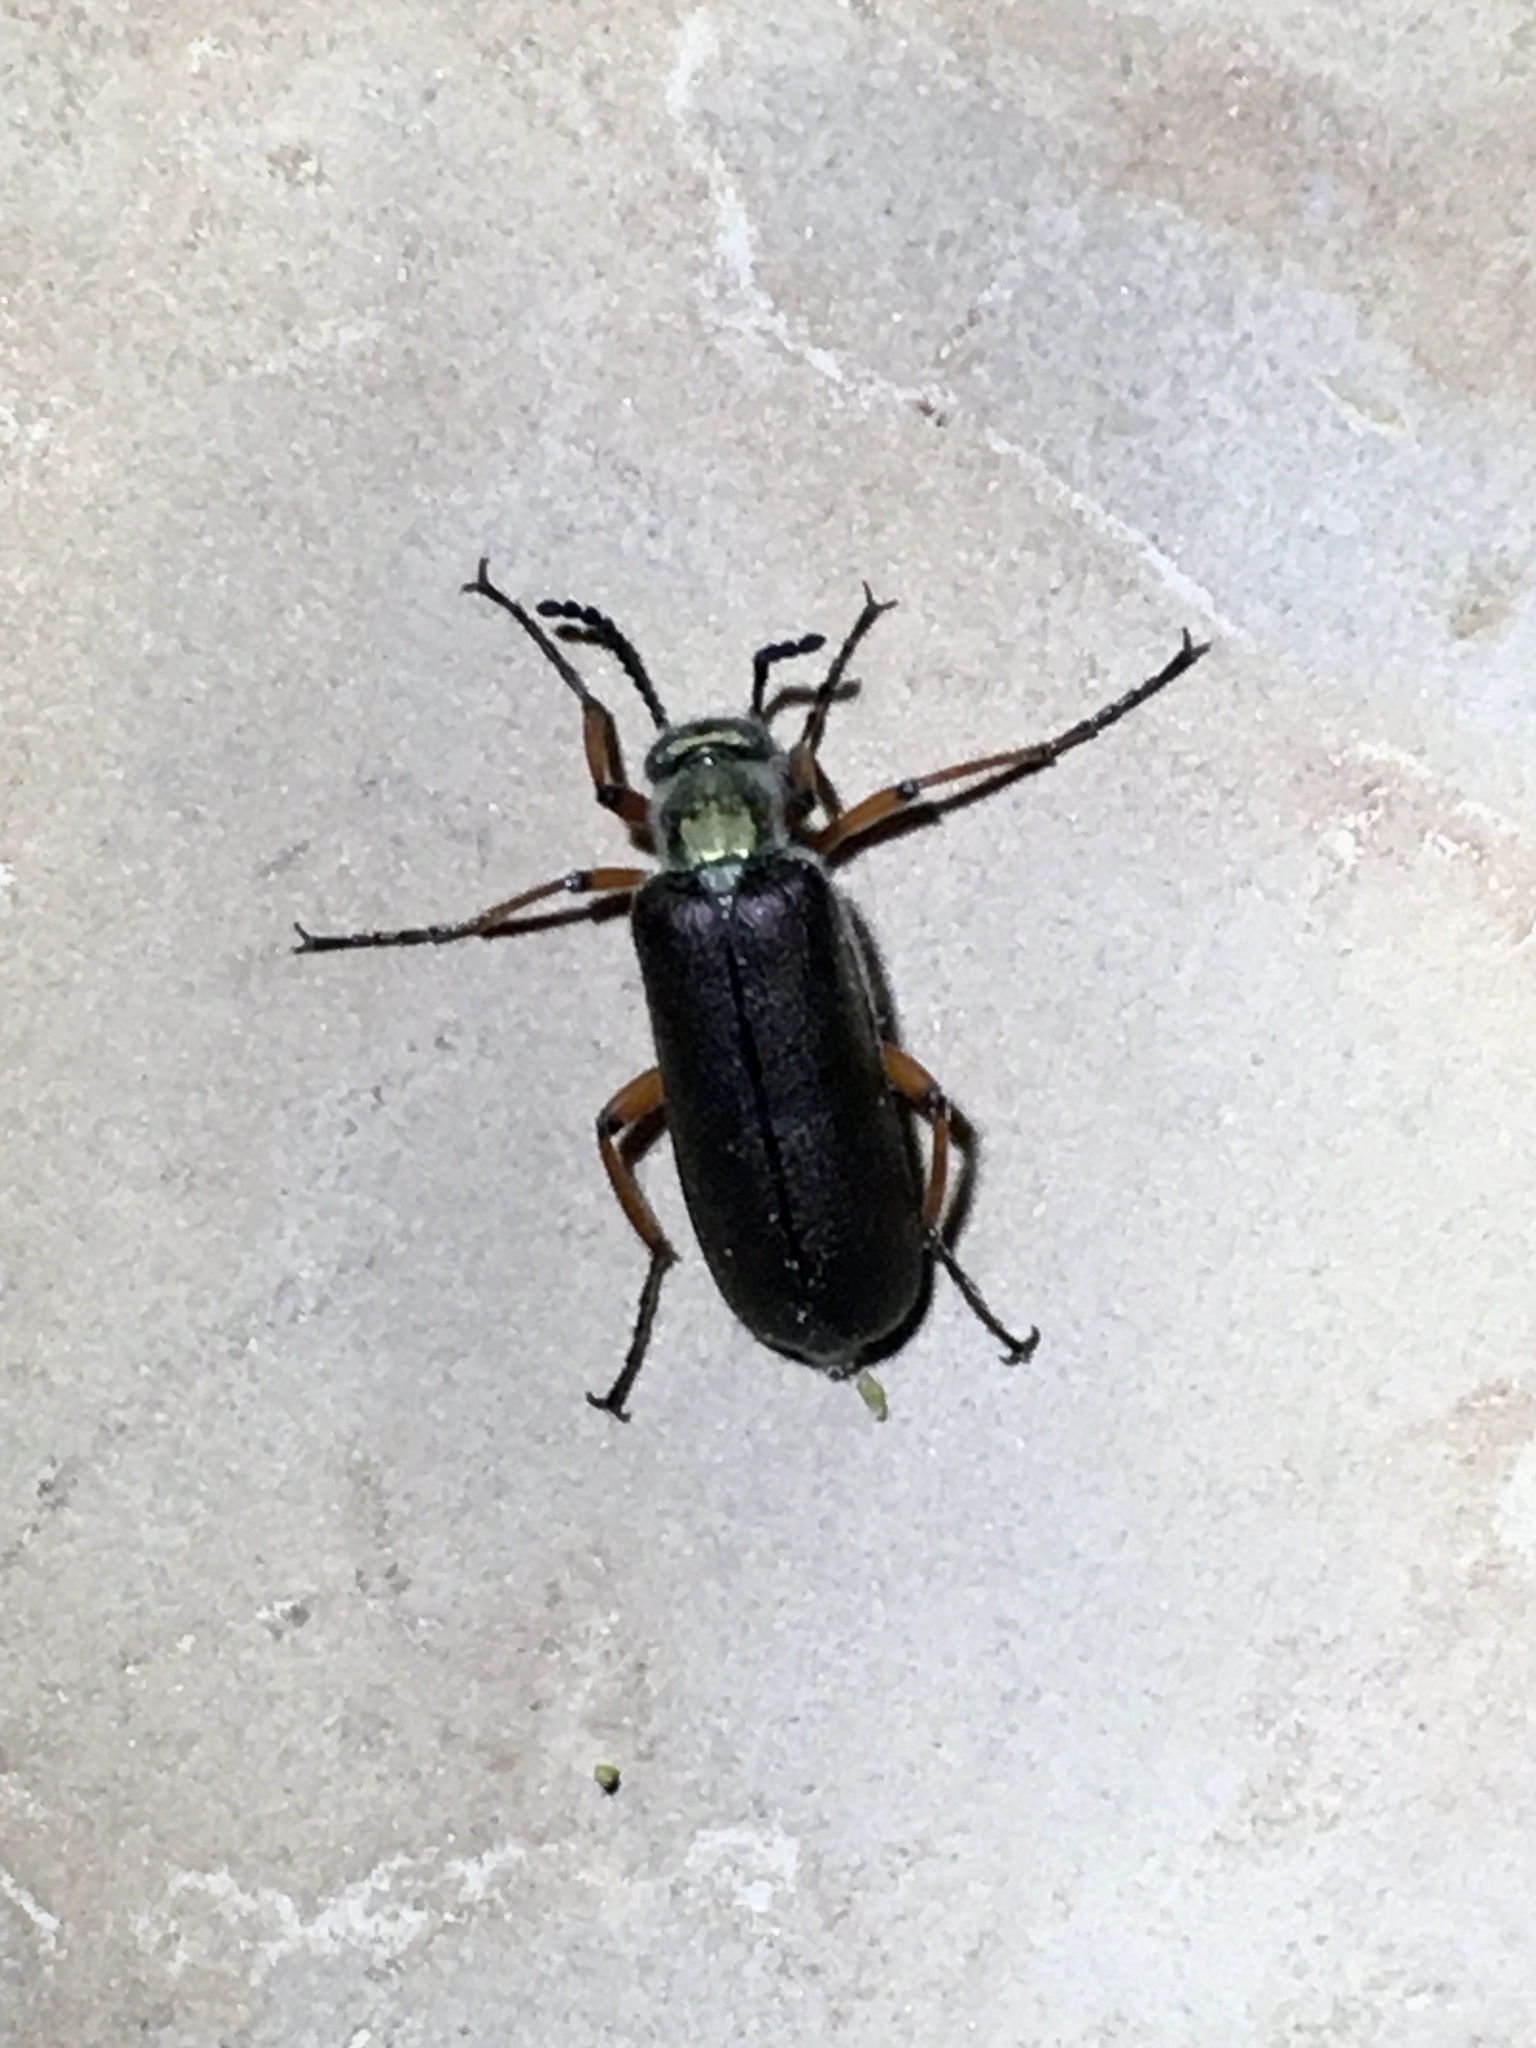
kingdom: Animalia
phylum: Arthropoda
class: Insecta
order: Coleoptera
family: Meloidae
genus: Lytta
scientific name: Lytta aenea
